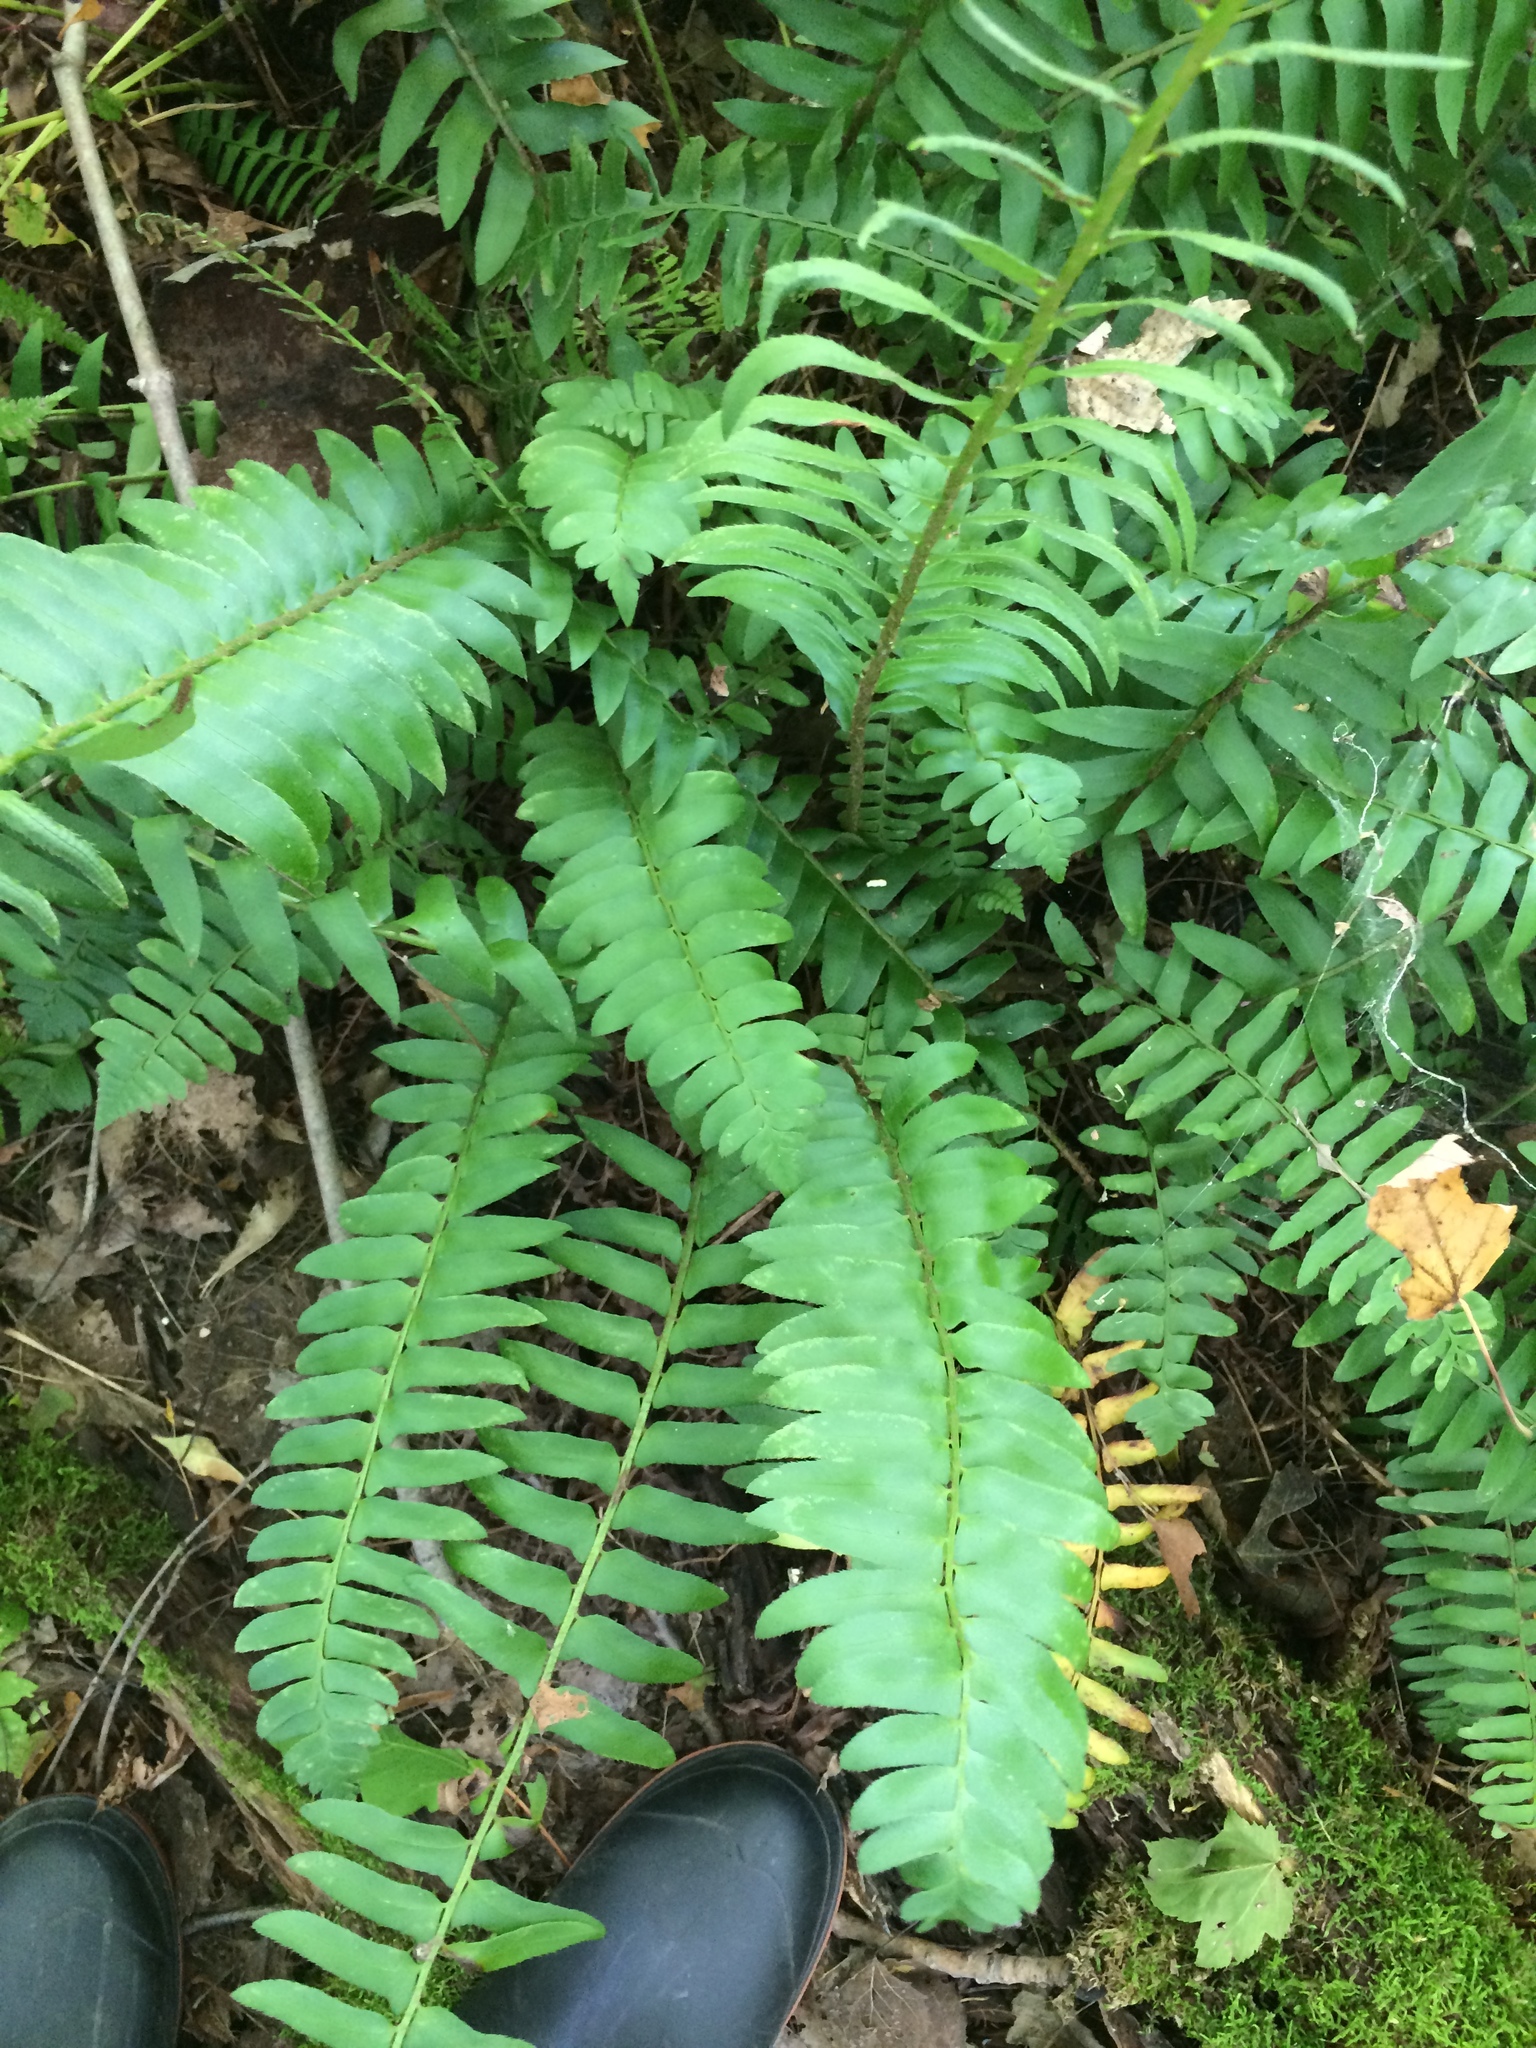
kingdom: Plantae
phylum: Tracheophyta
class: Polypodiopsida
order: Polypodiales
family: Dryopteridaceae
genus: Polystichum
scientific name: Polystichum acrostichoides
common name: Christmas fern
